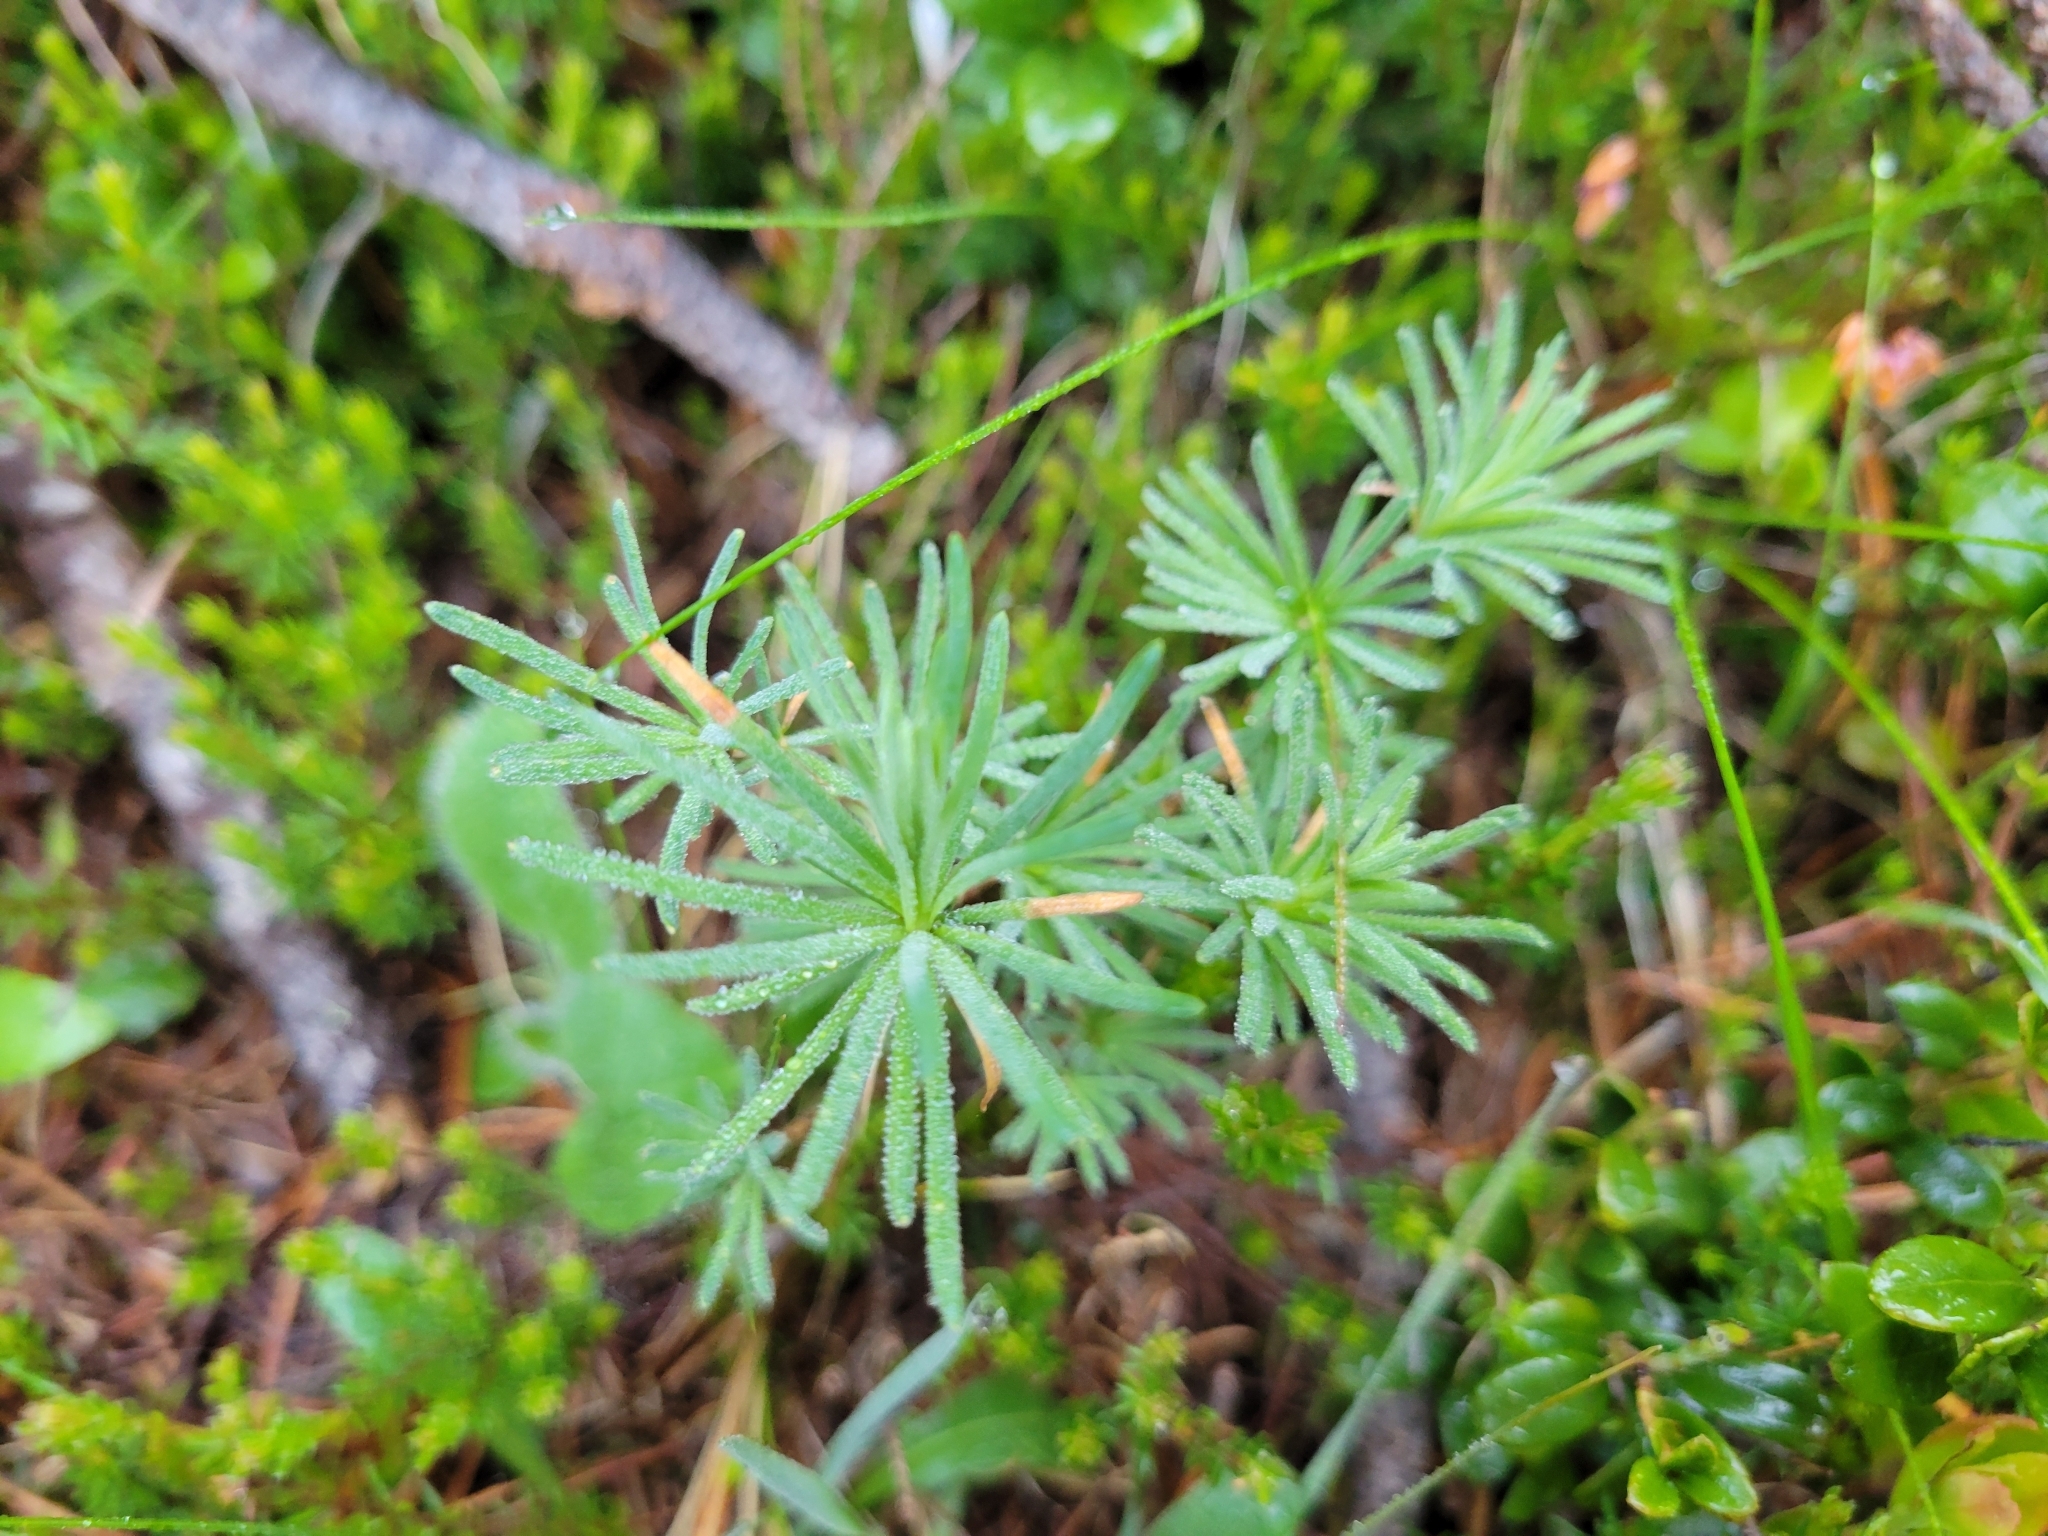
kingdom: Plantae
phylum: Tracheophyta
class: Magnoliopsida
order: Malpighiales
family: Euphorbiaceae
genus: Euphorbia
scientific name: Euphorbia cyparissias
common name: Cypress spurge
